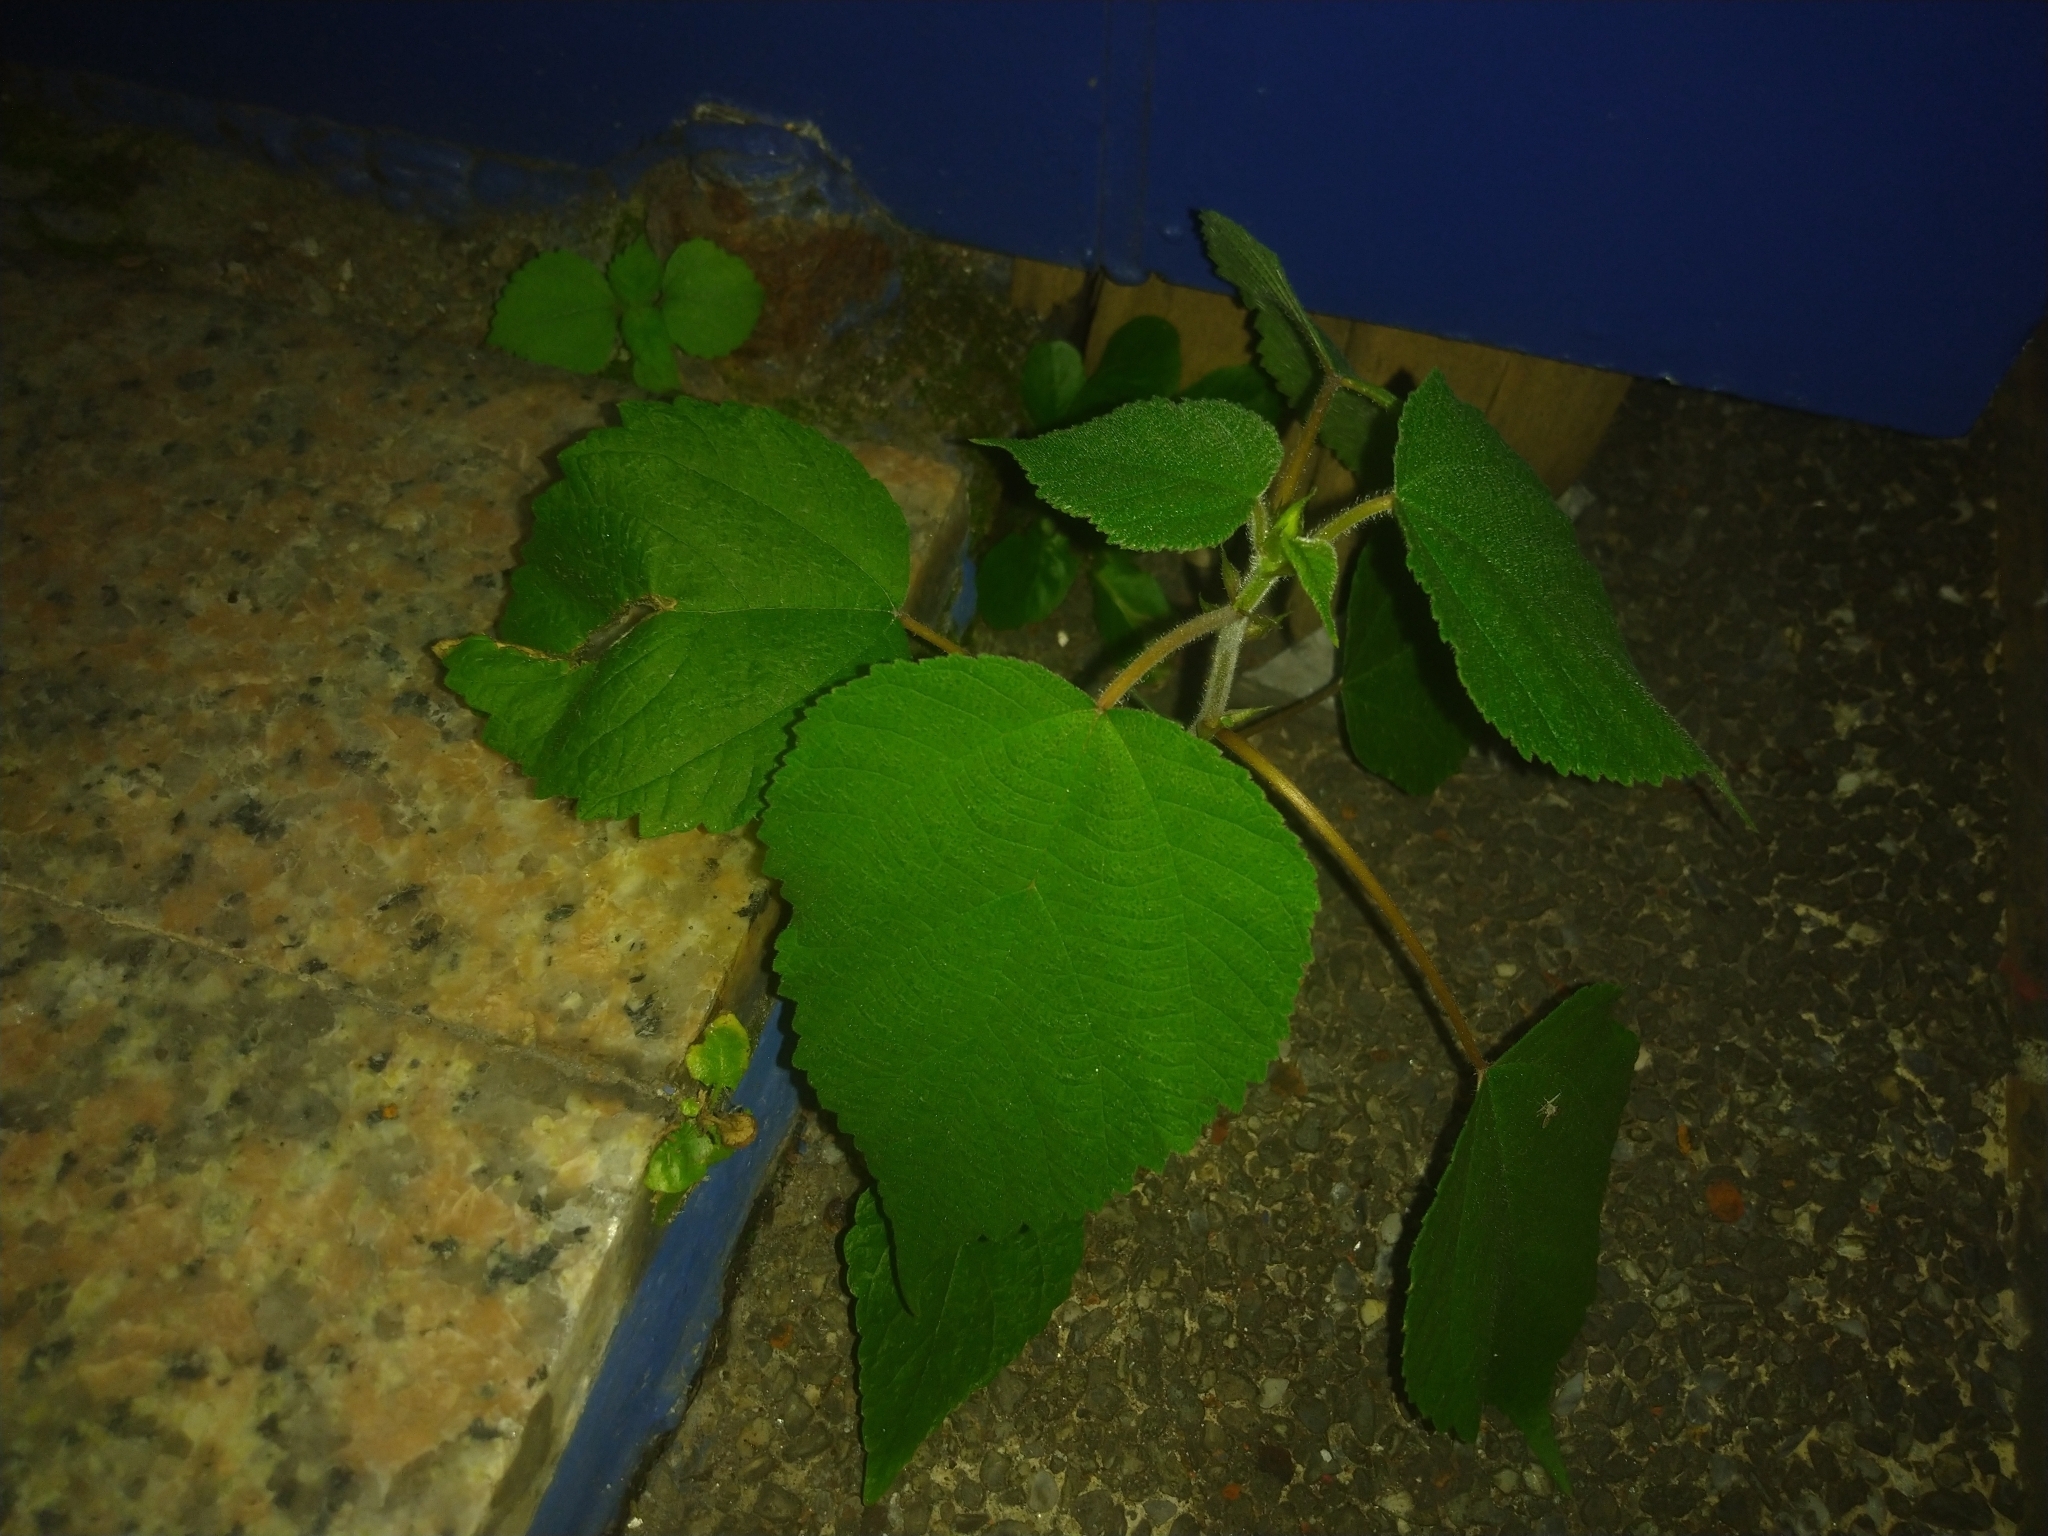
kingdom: Plantae
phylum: Tracheophyta
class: Magnoliopsida
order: Rosales
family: Moraceae
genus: Broussonetia
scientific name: Broussonetia papyrifera
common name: Paper mulberry
